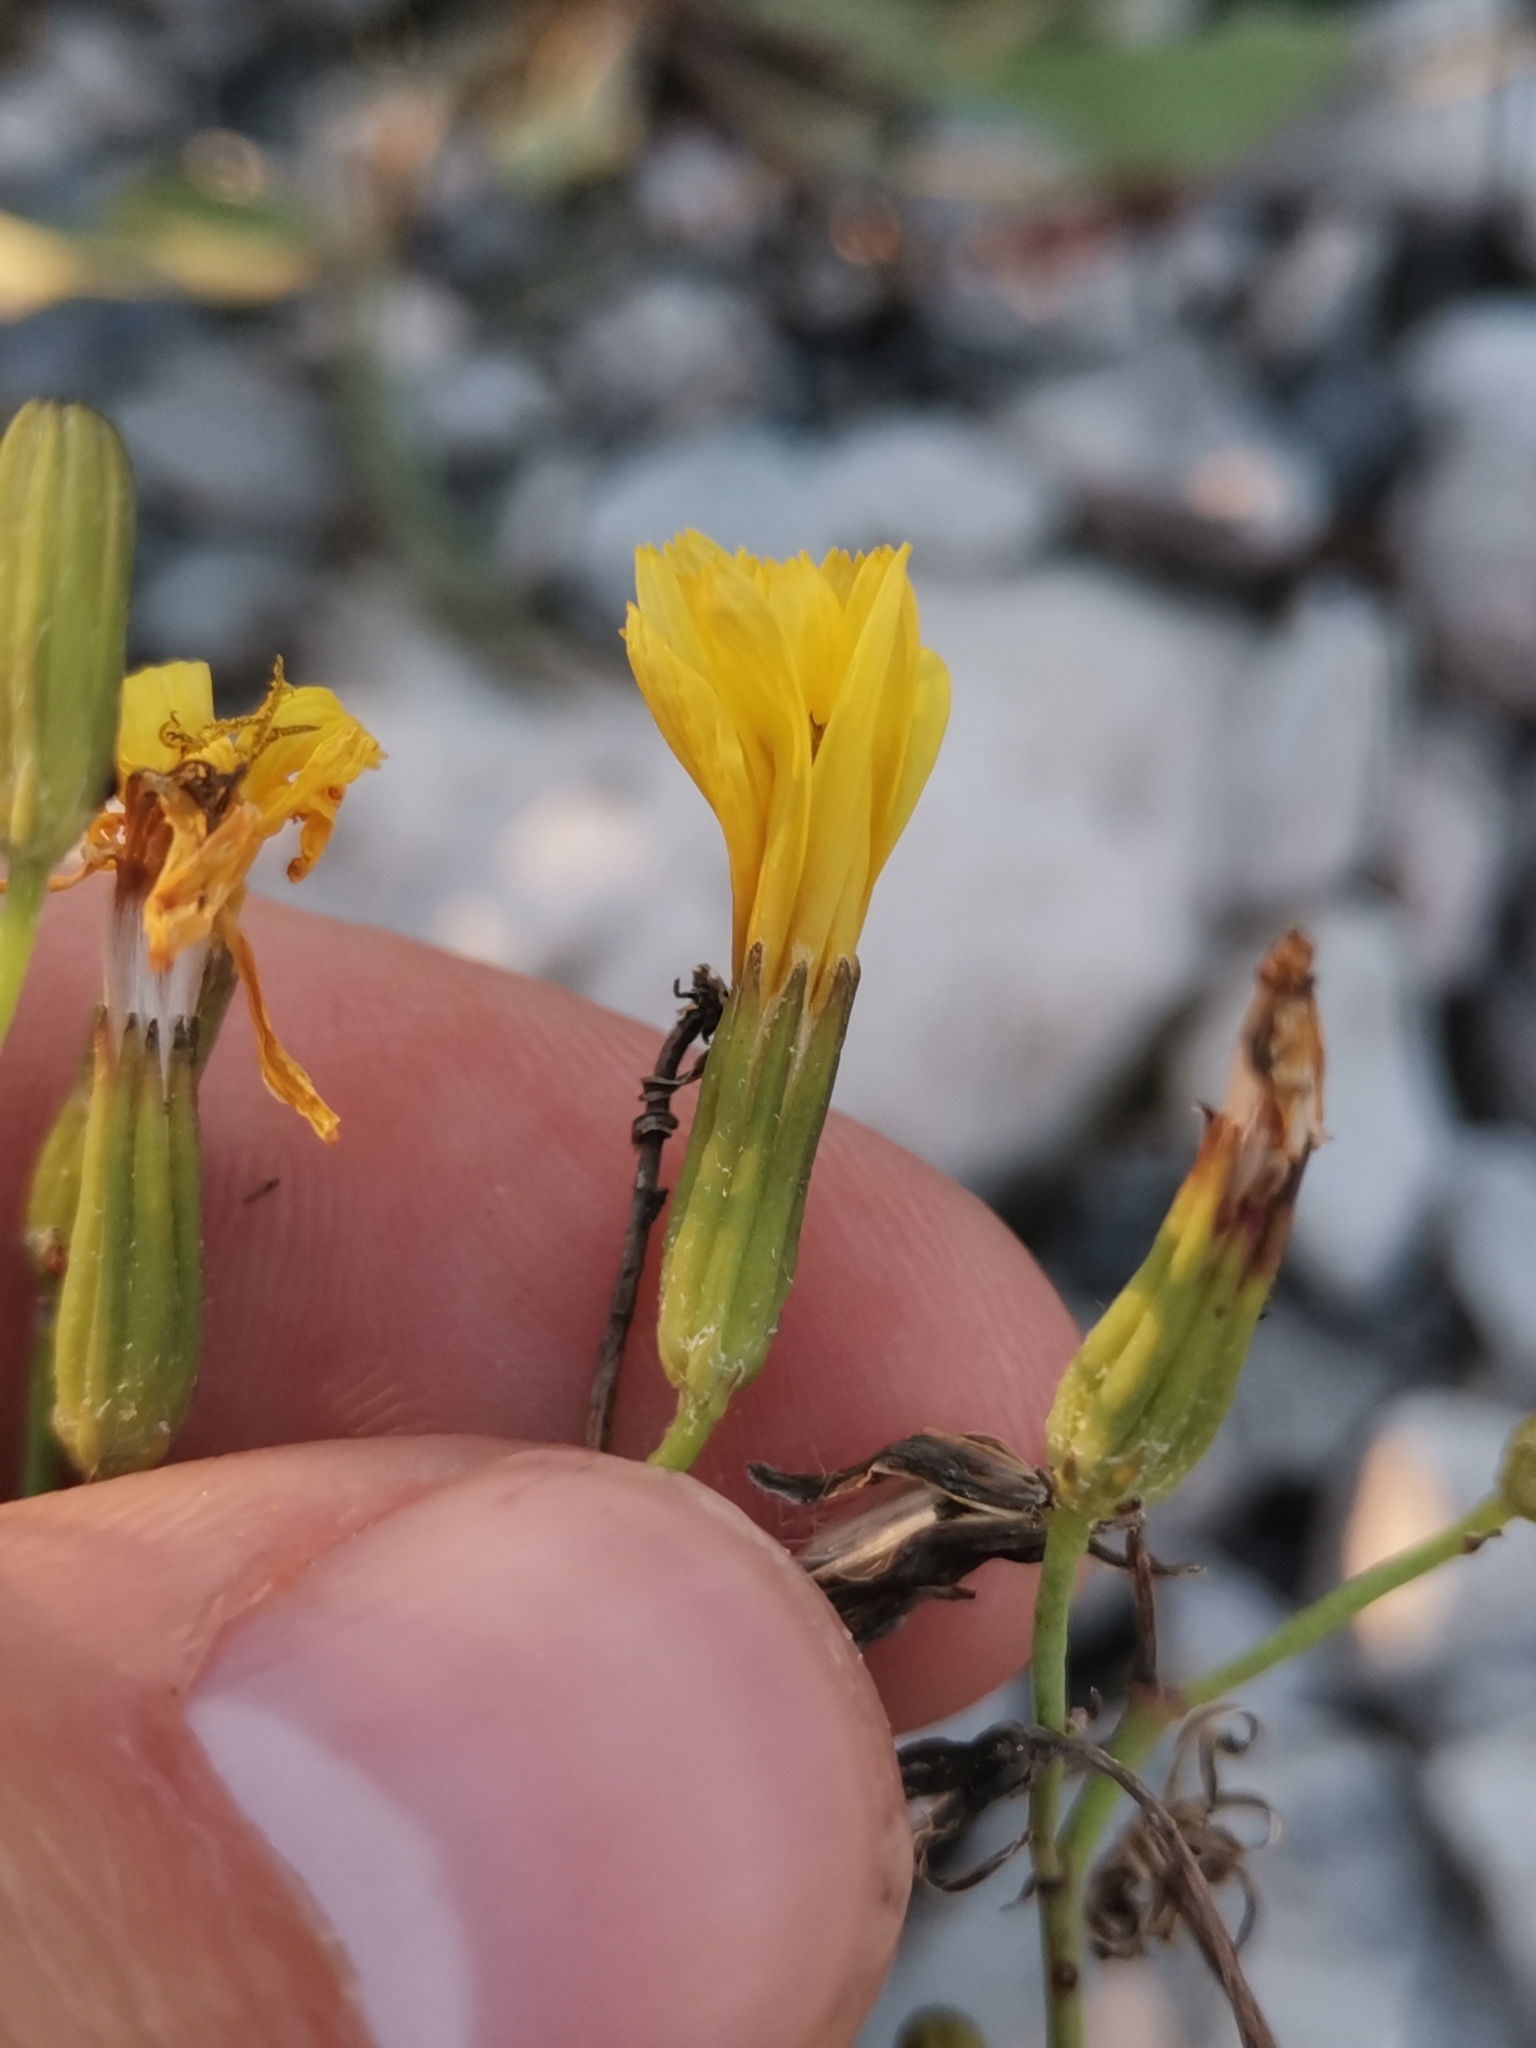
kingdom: Plantae
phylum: Tracheophyta
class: Magnoliopsida
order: Asterales
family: Asteraceae
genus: Chondrilla
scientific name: Chondrilla chondrilloides
